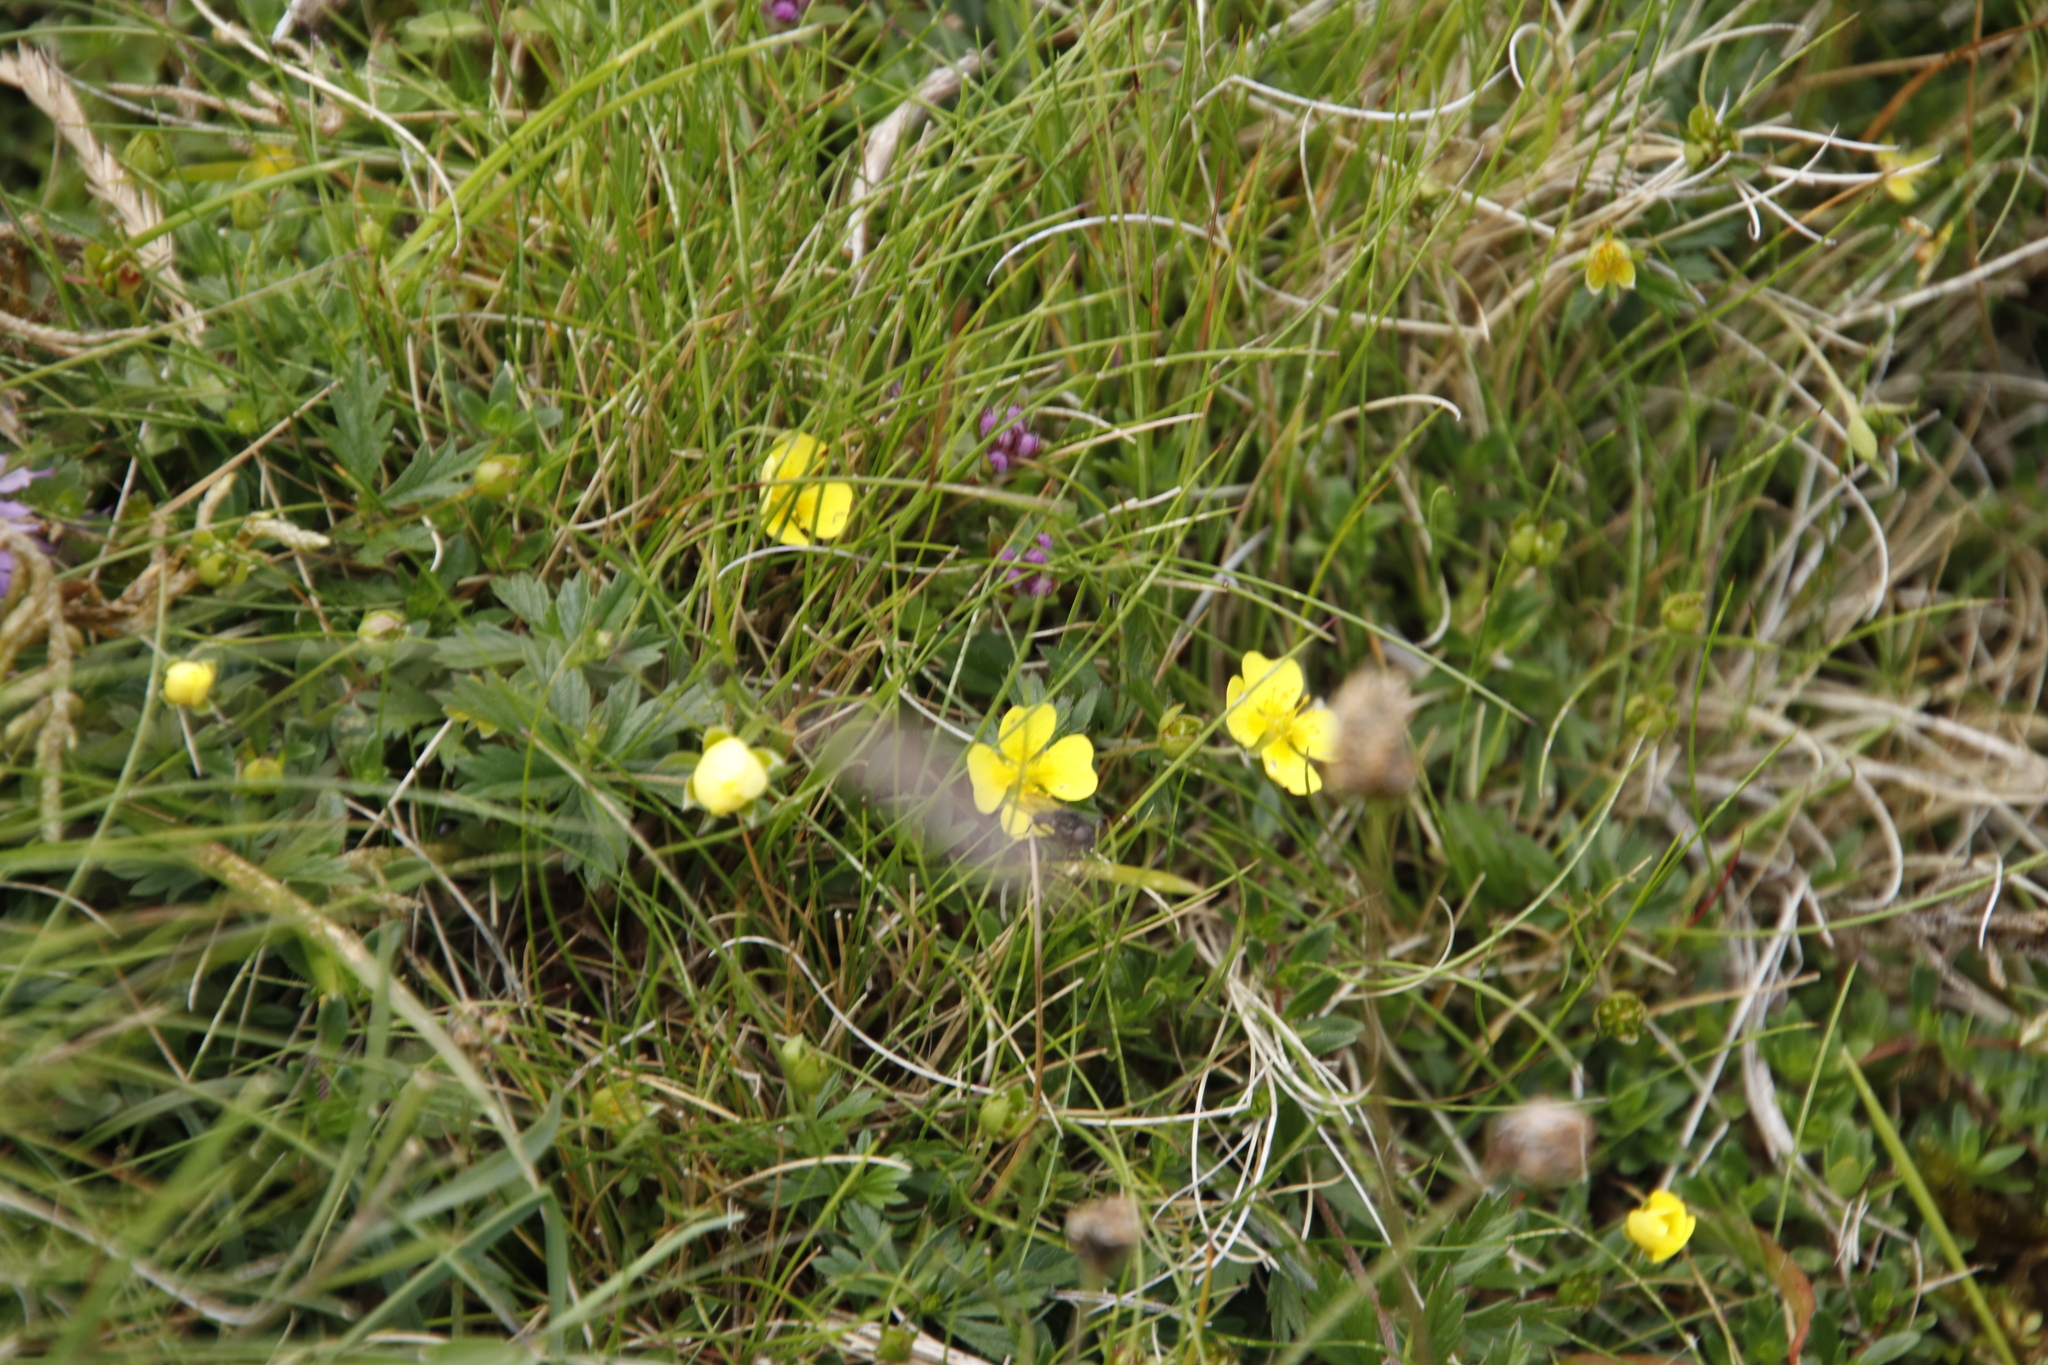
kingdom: Plantae
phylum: Tracheophyta
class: Magnoliopsida
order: Rosales
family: Rosaceae
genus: Potentilla
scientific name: Potentilla erecta
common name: Tormentil
